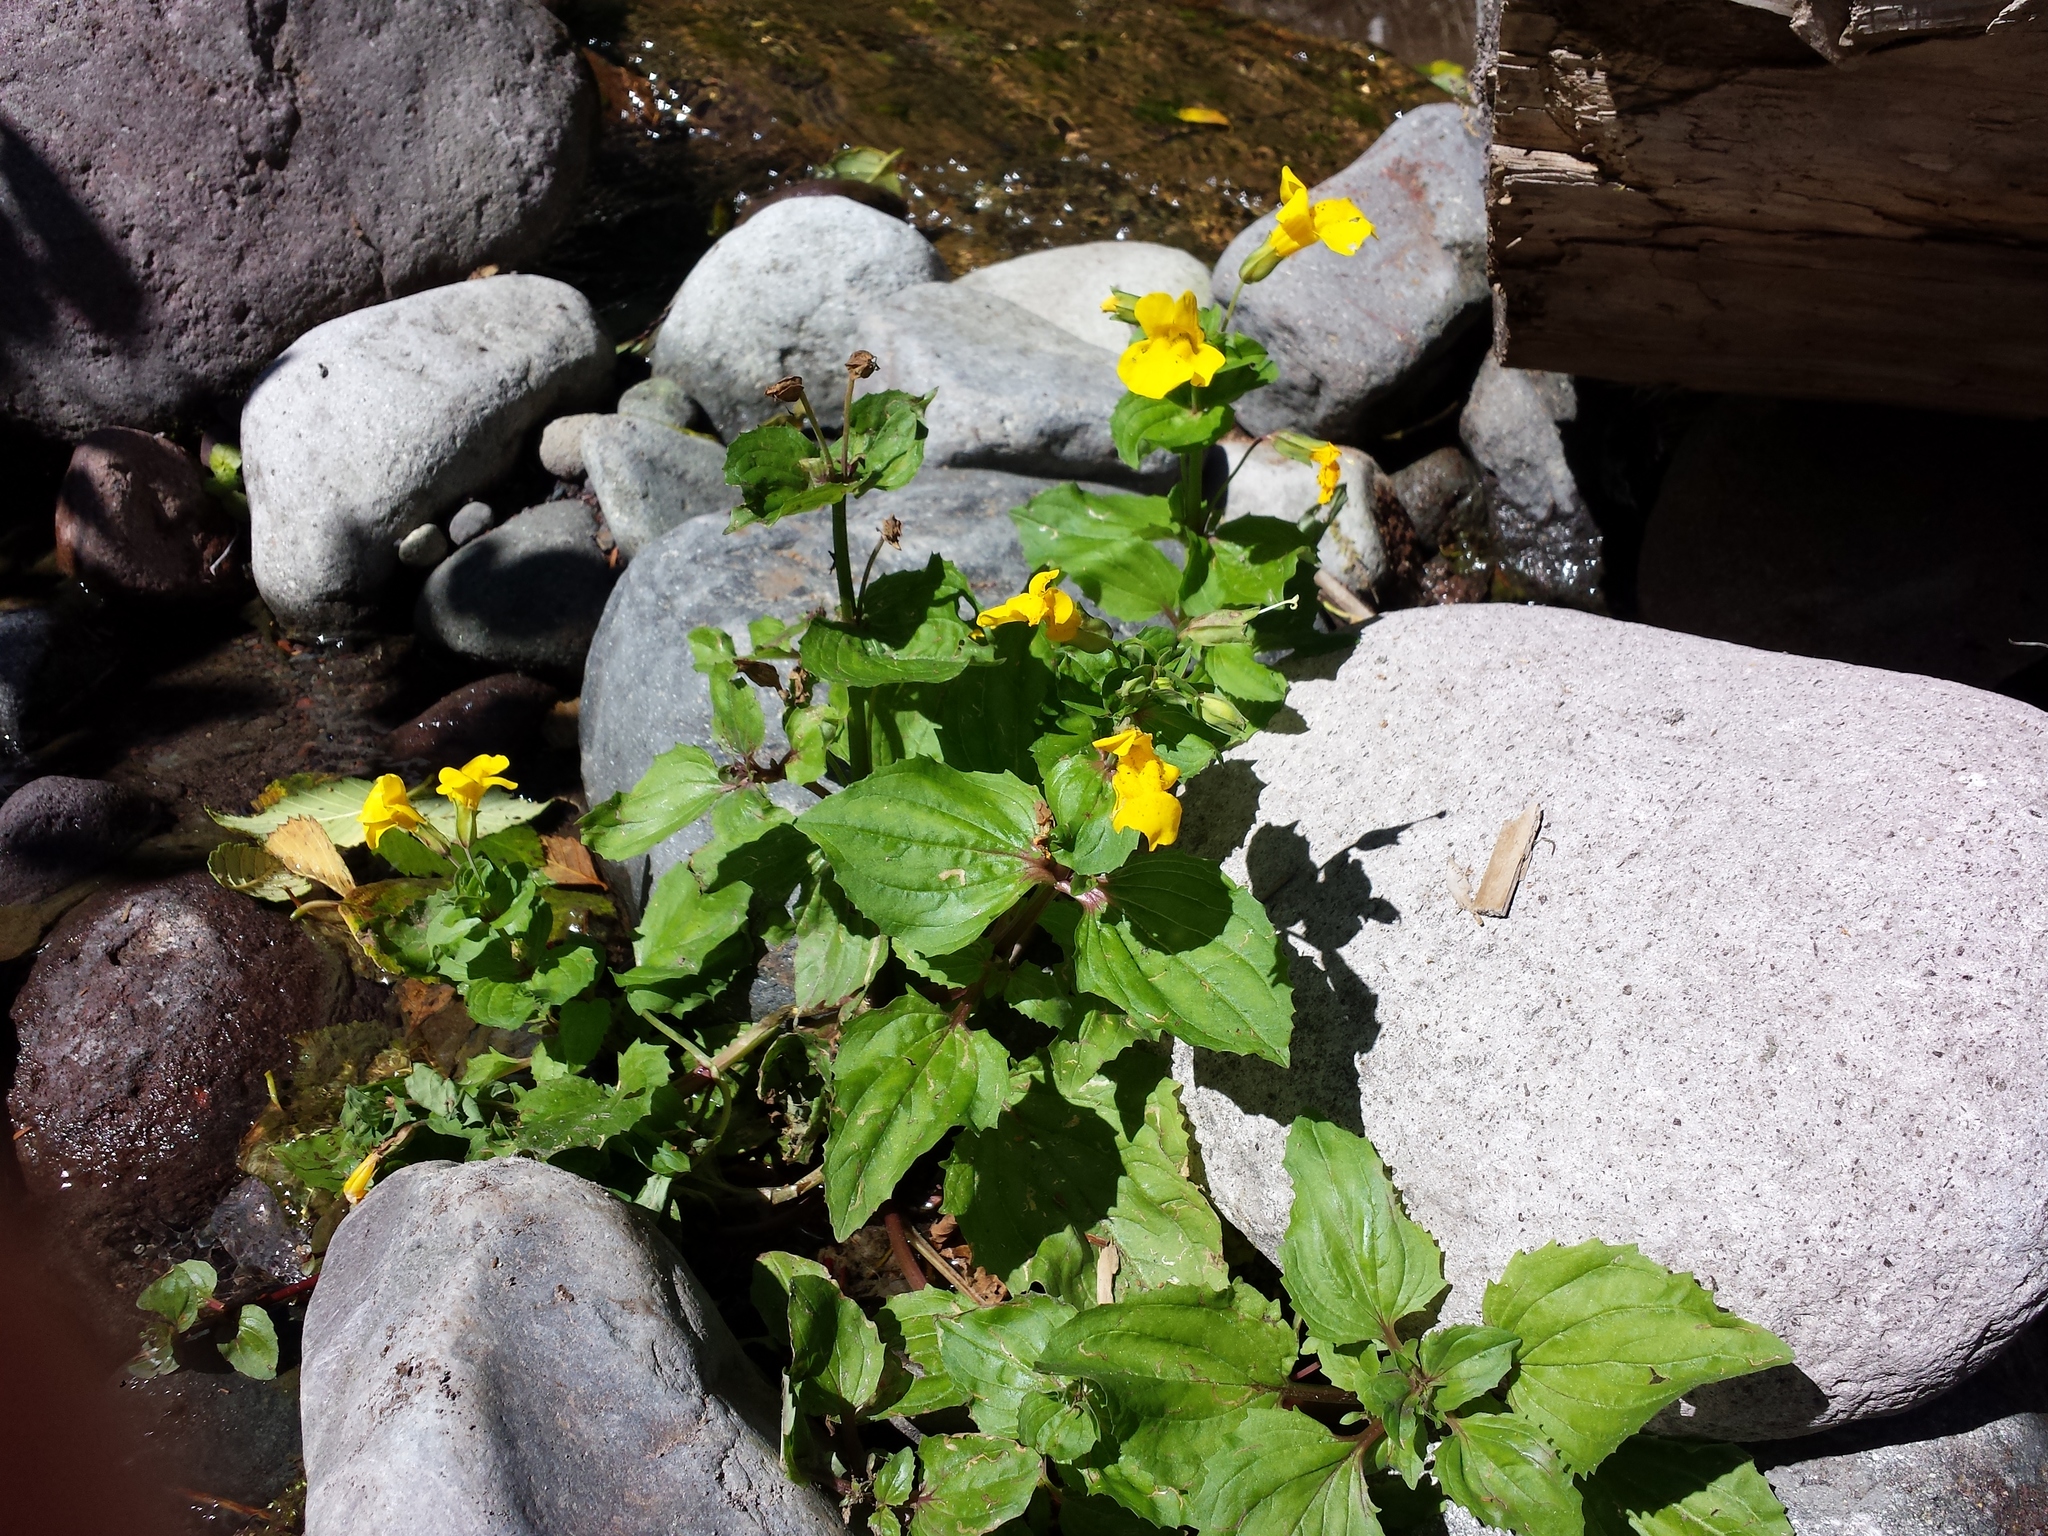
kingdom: Plantae
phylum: Tracheophyta
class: Magnoliopsida
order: Lamiales
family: Phrymaceae
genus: Erythranthe
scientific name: Erythranthe guttata
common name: Monkeyflower
